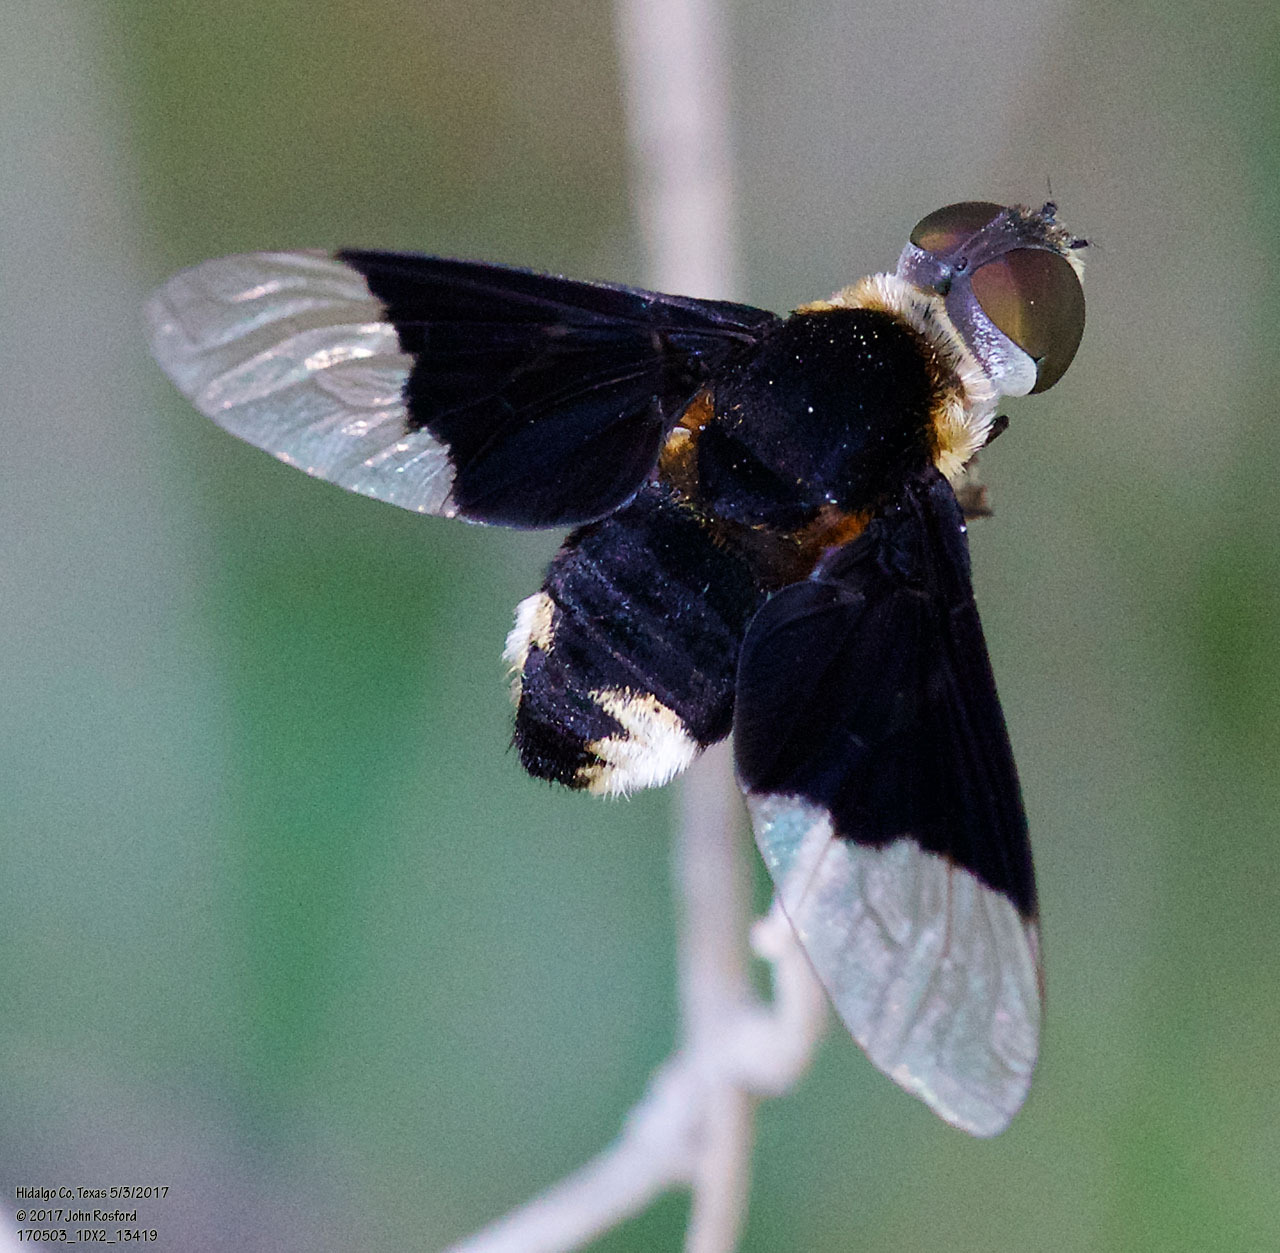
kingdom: Animalia
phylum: Arthropoda
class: Insecta
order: Diptera
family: Bombyliidae
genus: Ins
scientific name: Ins celeris
